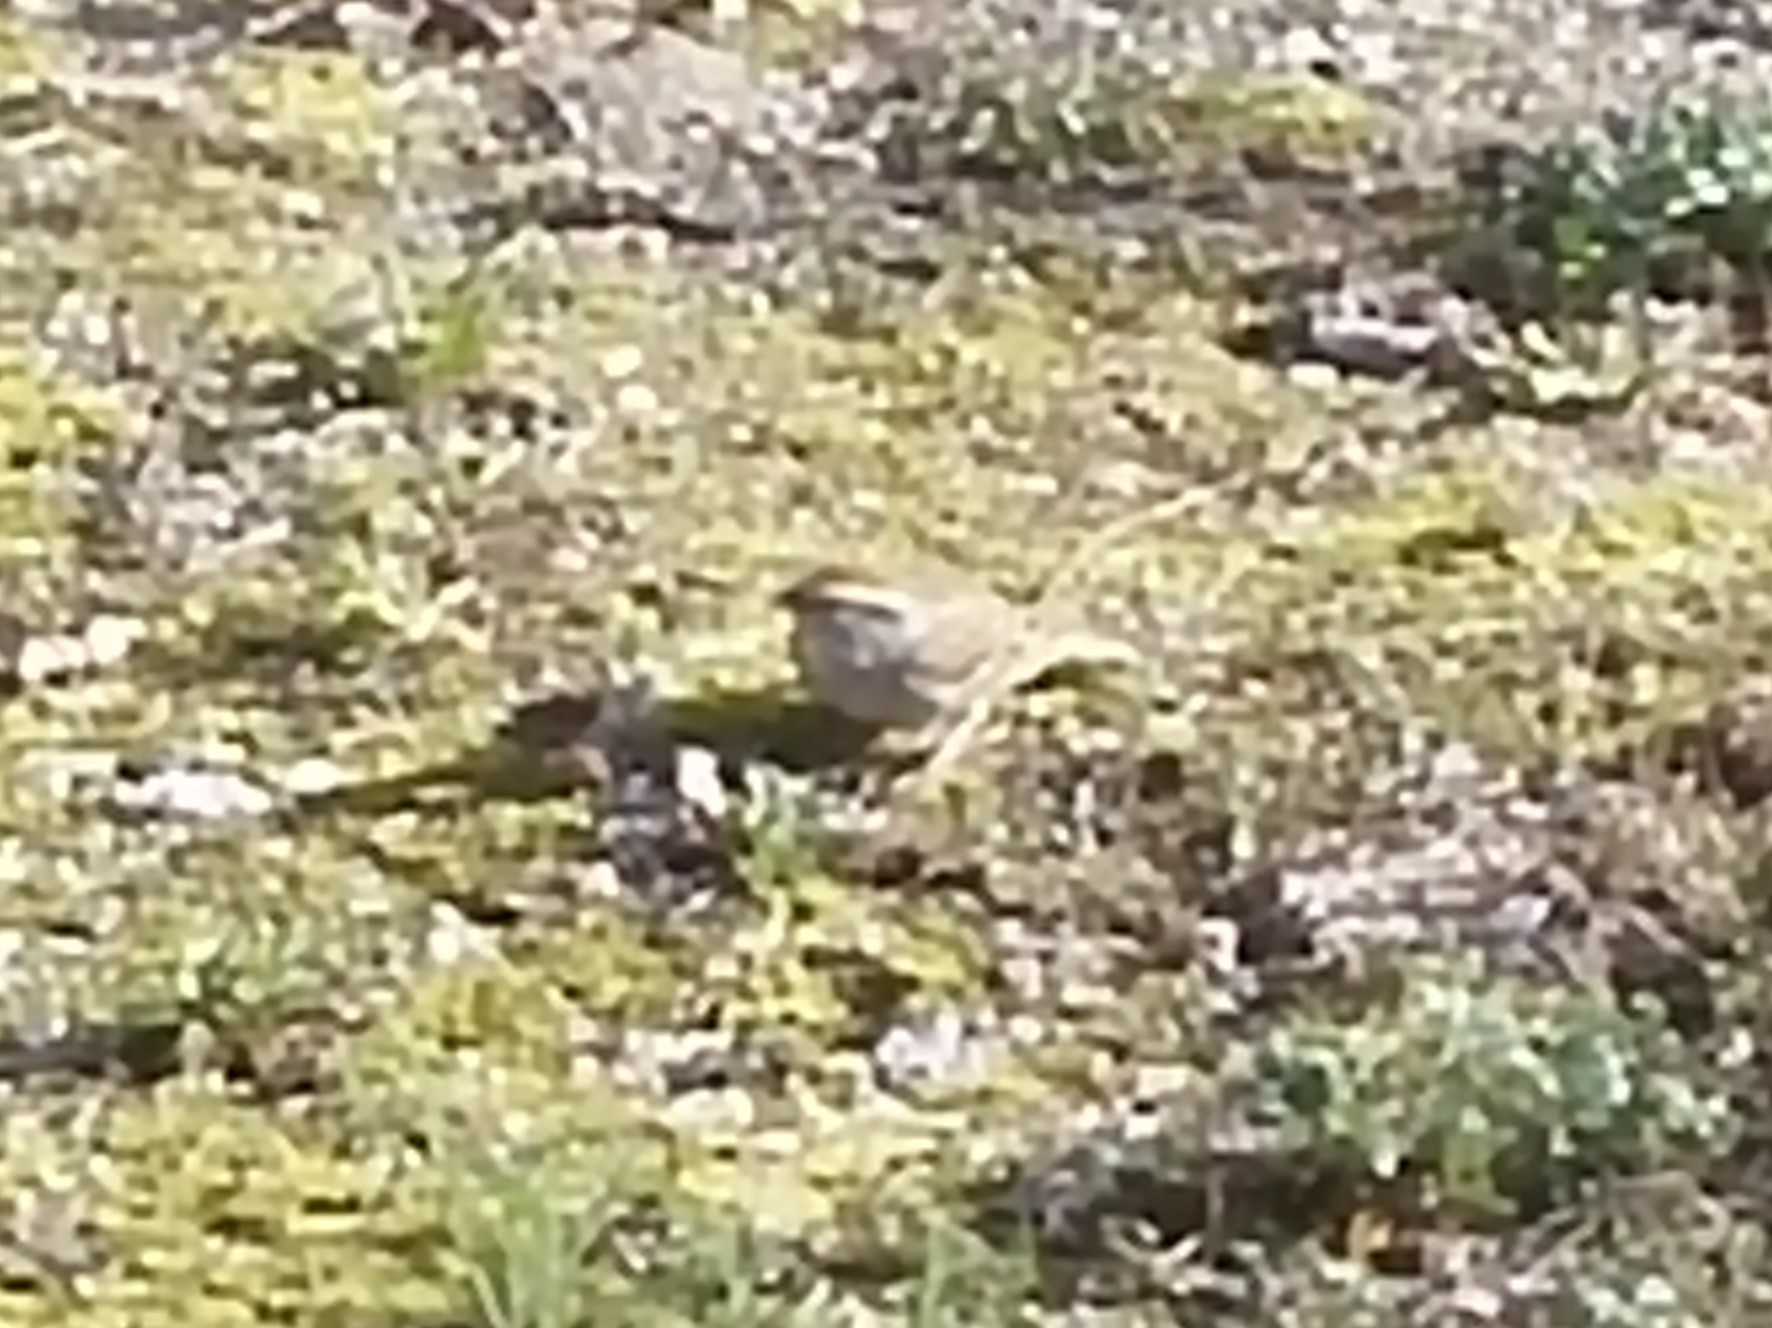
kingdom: Animalia
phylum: Chordata
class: Aves
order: Passeriformes
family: Passerellidae
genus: Spizella
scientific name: Spizella passerina
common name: Chipping sparrow
